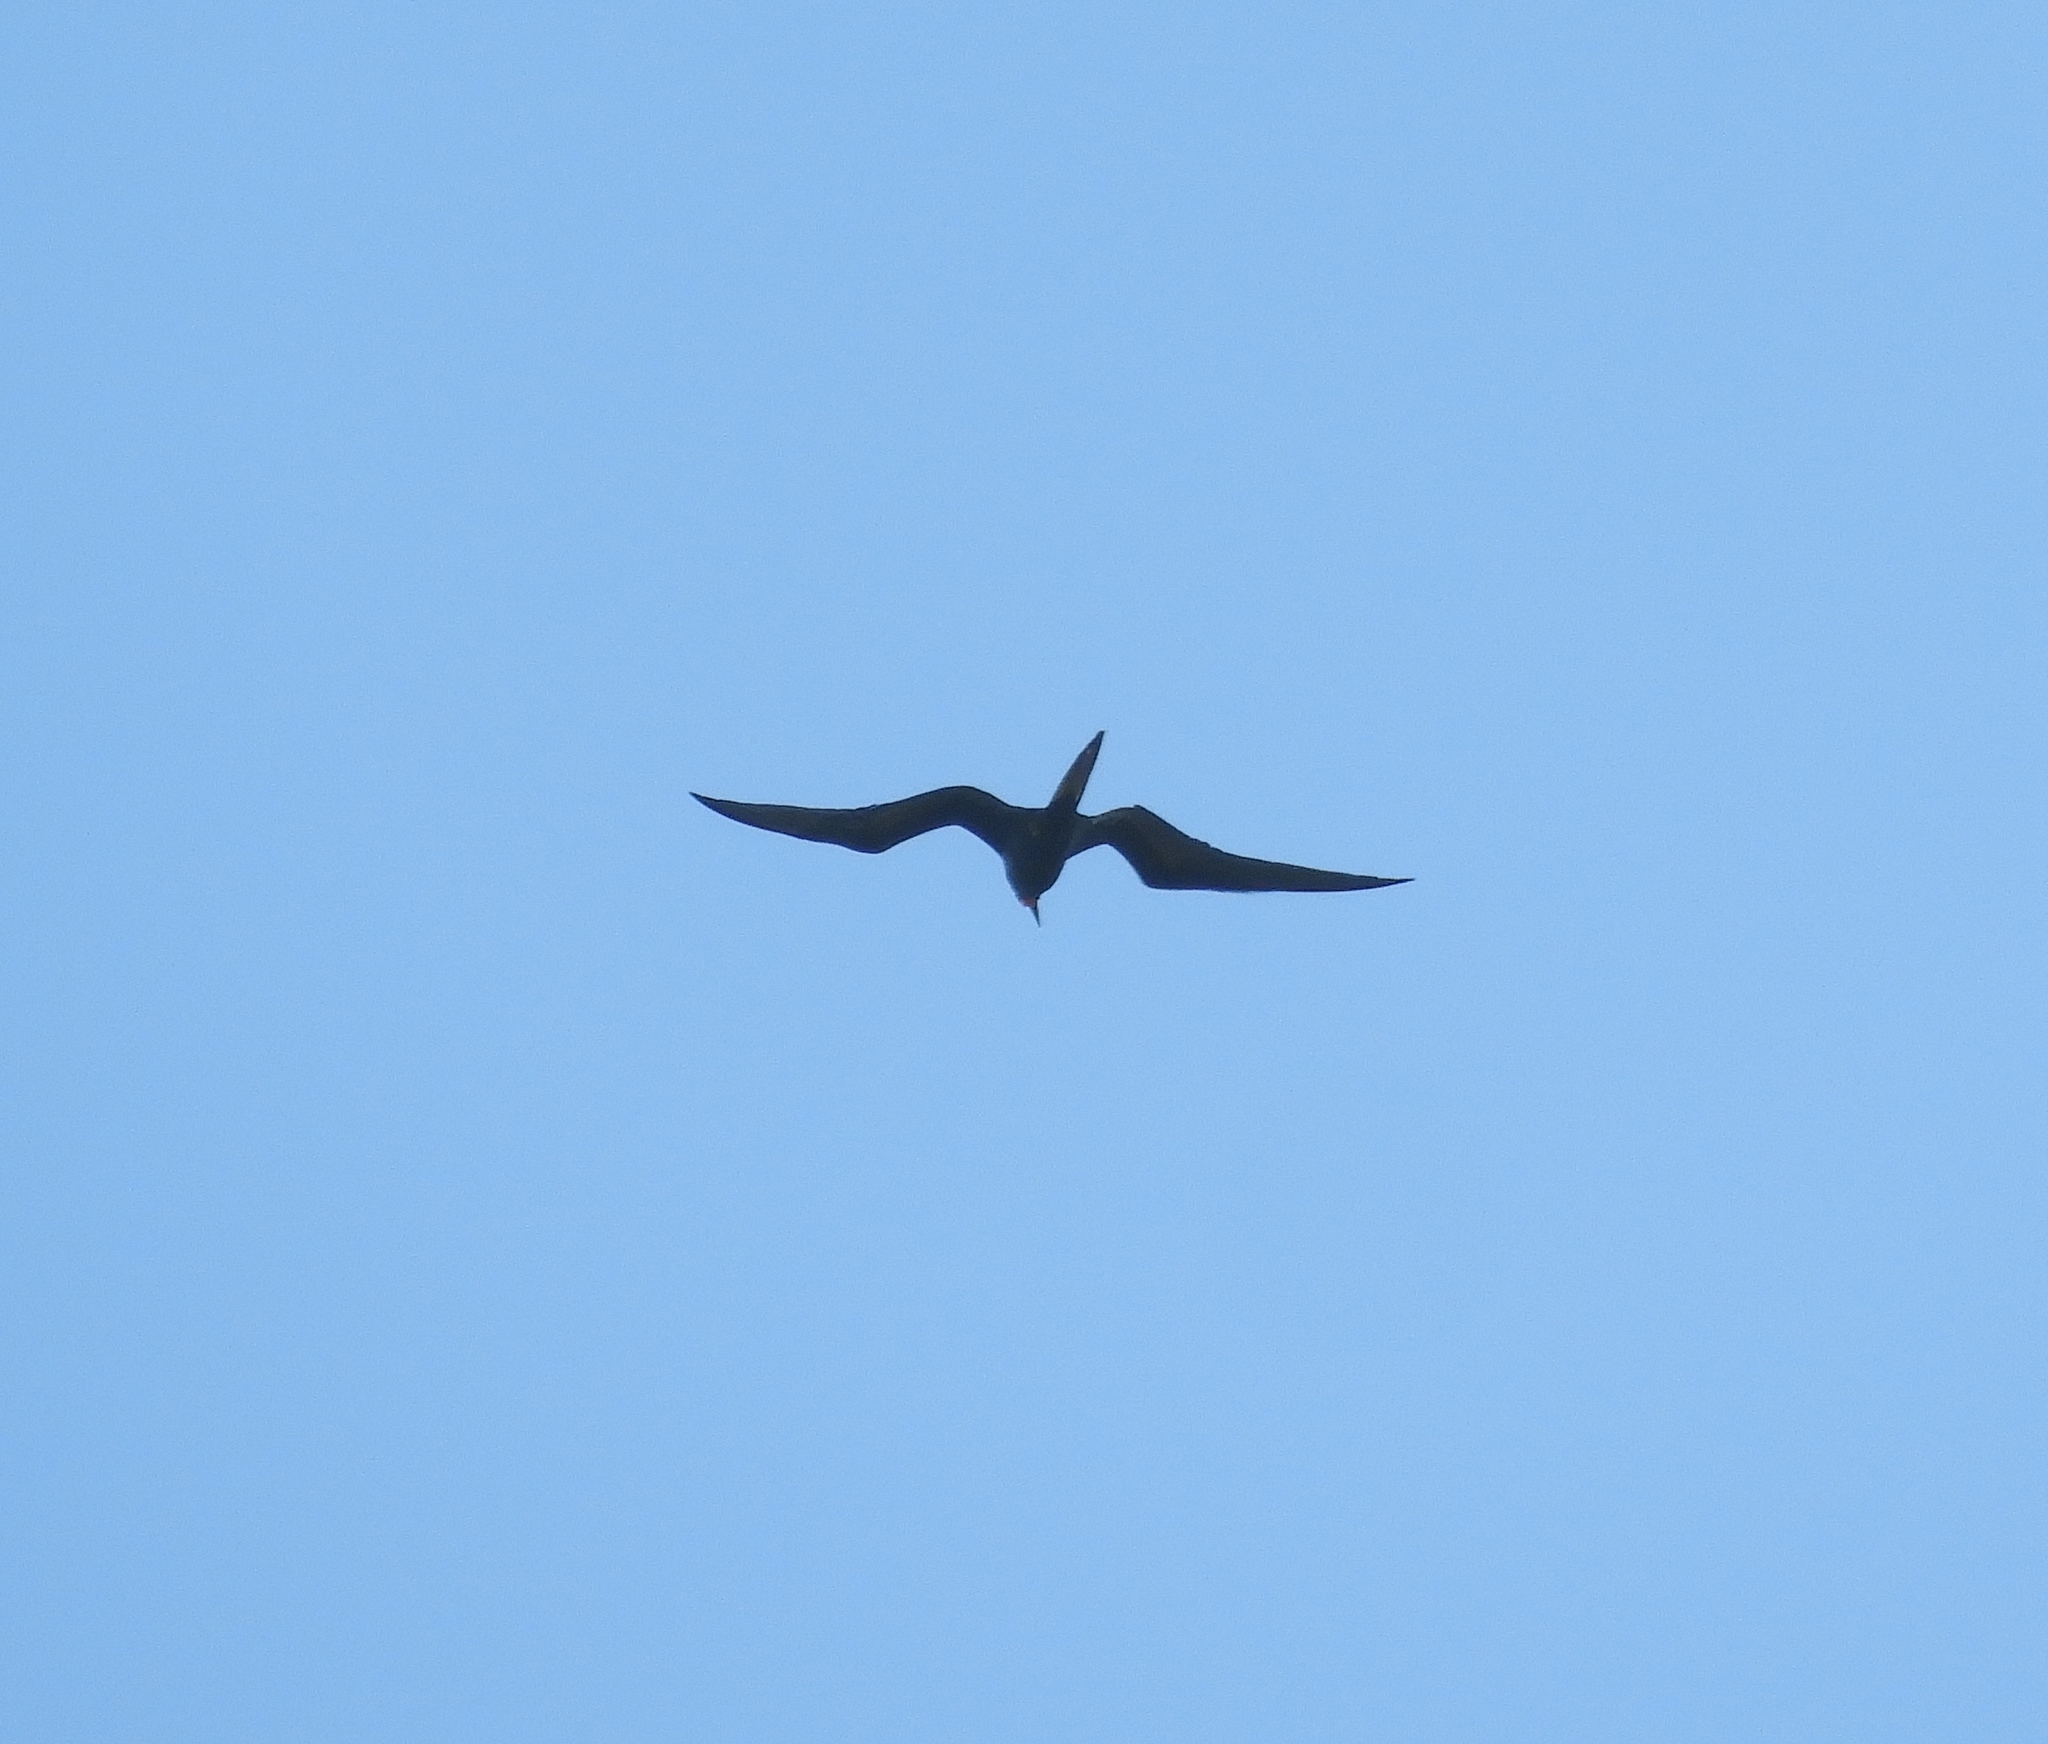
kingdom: Animalia
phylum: Chordata
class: Aves
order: Suliformes
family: Fregatidae
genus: Fregata
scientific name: Fregata magnificens
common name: Magnificent frigatebird
